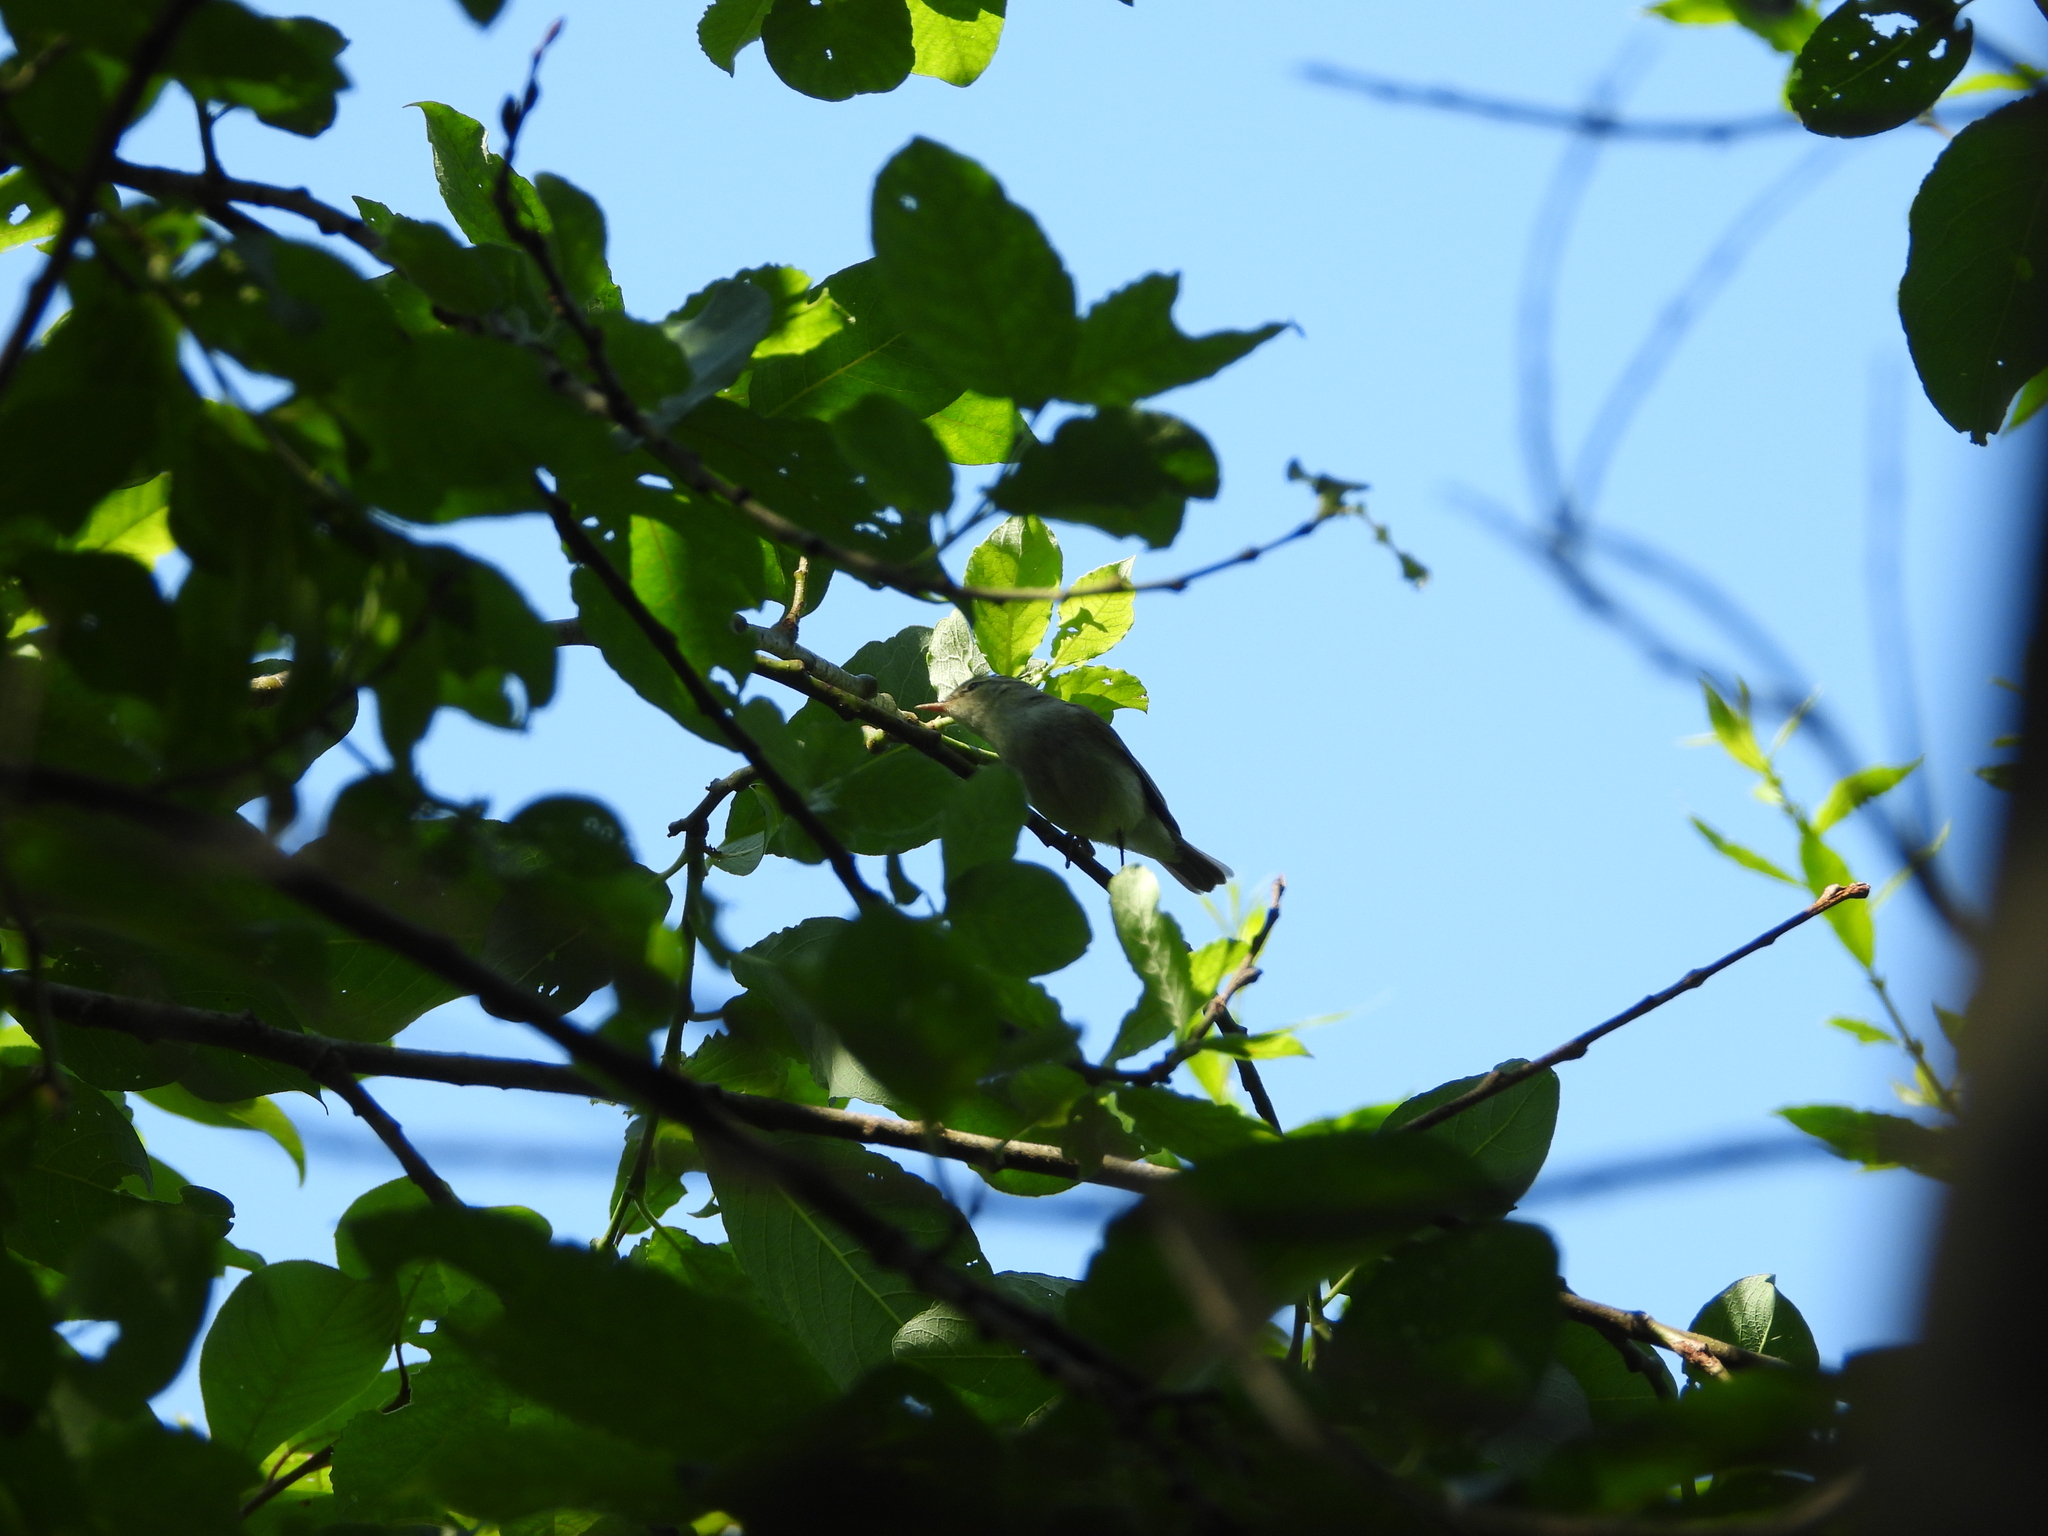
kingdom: Animalia
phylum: Chordata
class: Aves
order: Passeriformes
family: Phylloscopidae
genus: Phylloscopus
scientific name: Phylloscopus trochiloides
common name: Greenish warbler
